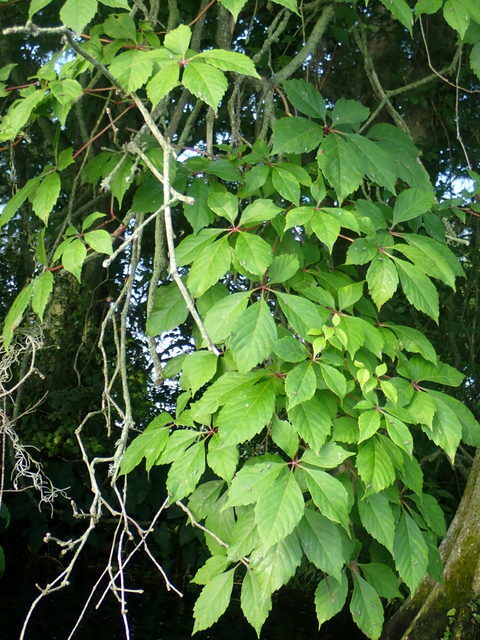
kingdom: Plantae
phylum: Tracheophyta
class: Magnoliopsida
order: Vitales
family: Vitaceae
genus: Parthenocissus
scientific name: Parthenocissus quinquefolia
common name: Virginia-creeper
